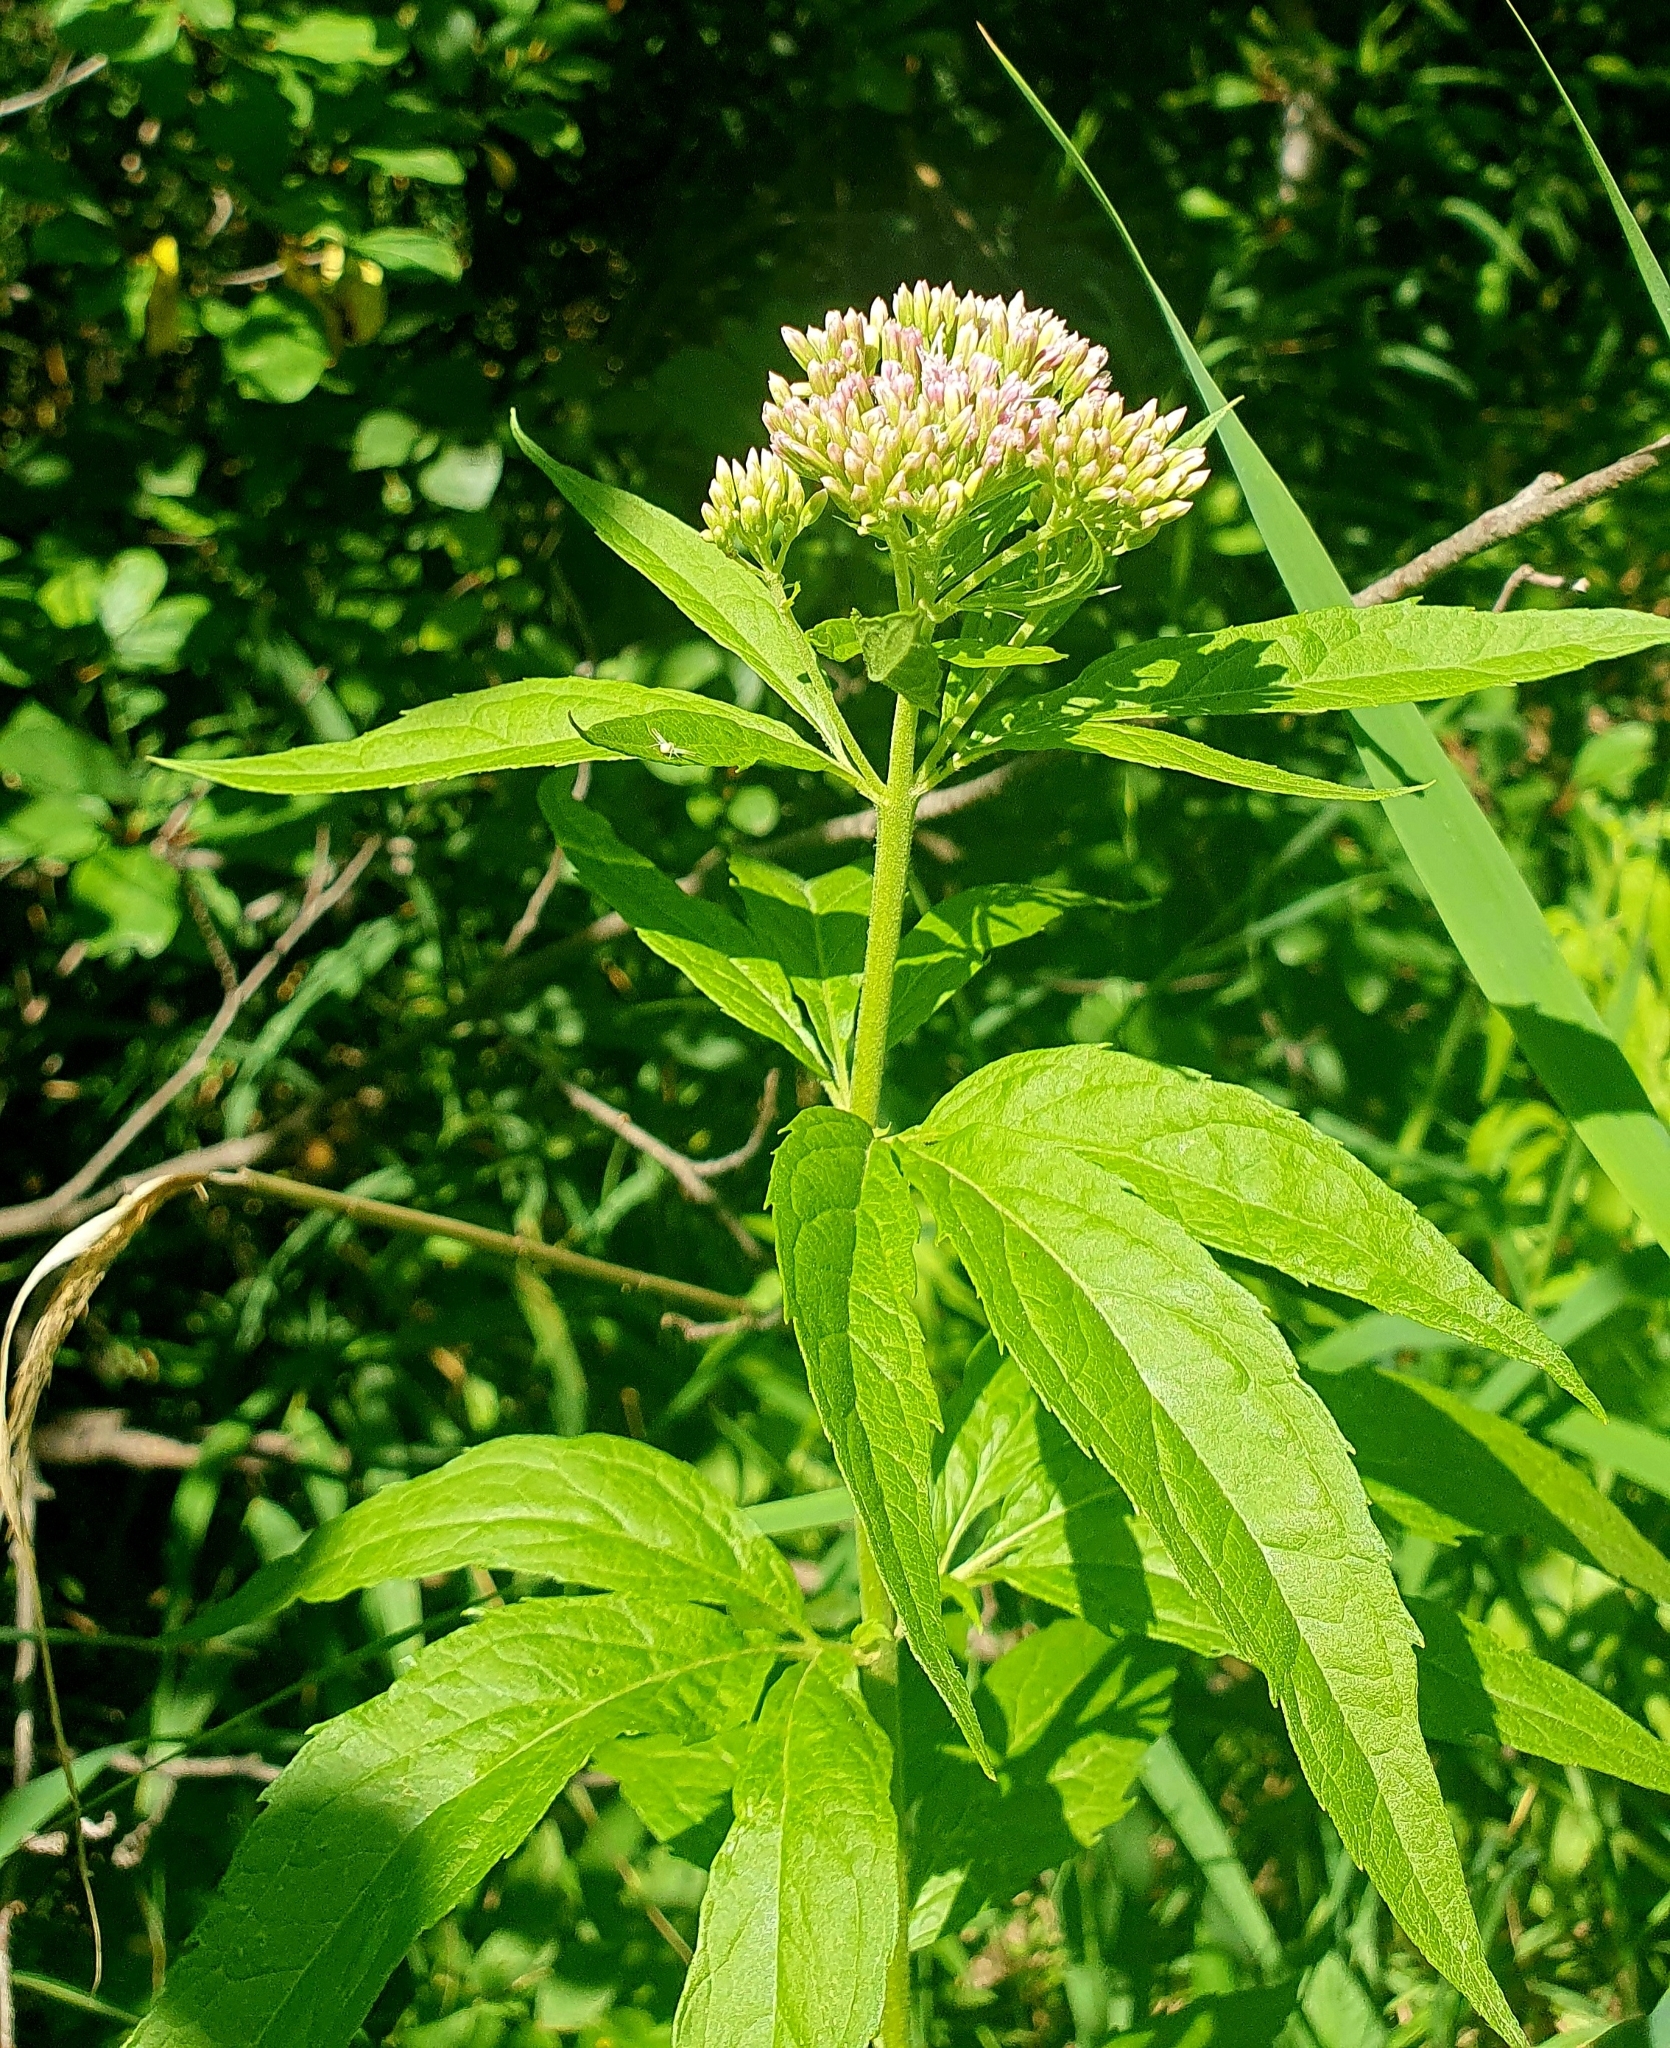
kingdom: Plantae
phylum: Tracheophyta
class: Magnoliopsida
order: Asterales
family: Asteraceae
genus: Eupatorium
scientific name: Eupatorium cannabinum
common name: Hemp-agrimony
